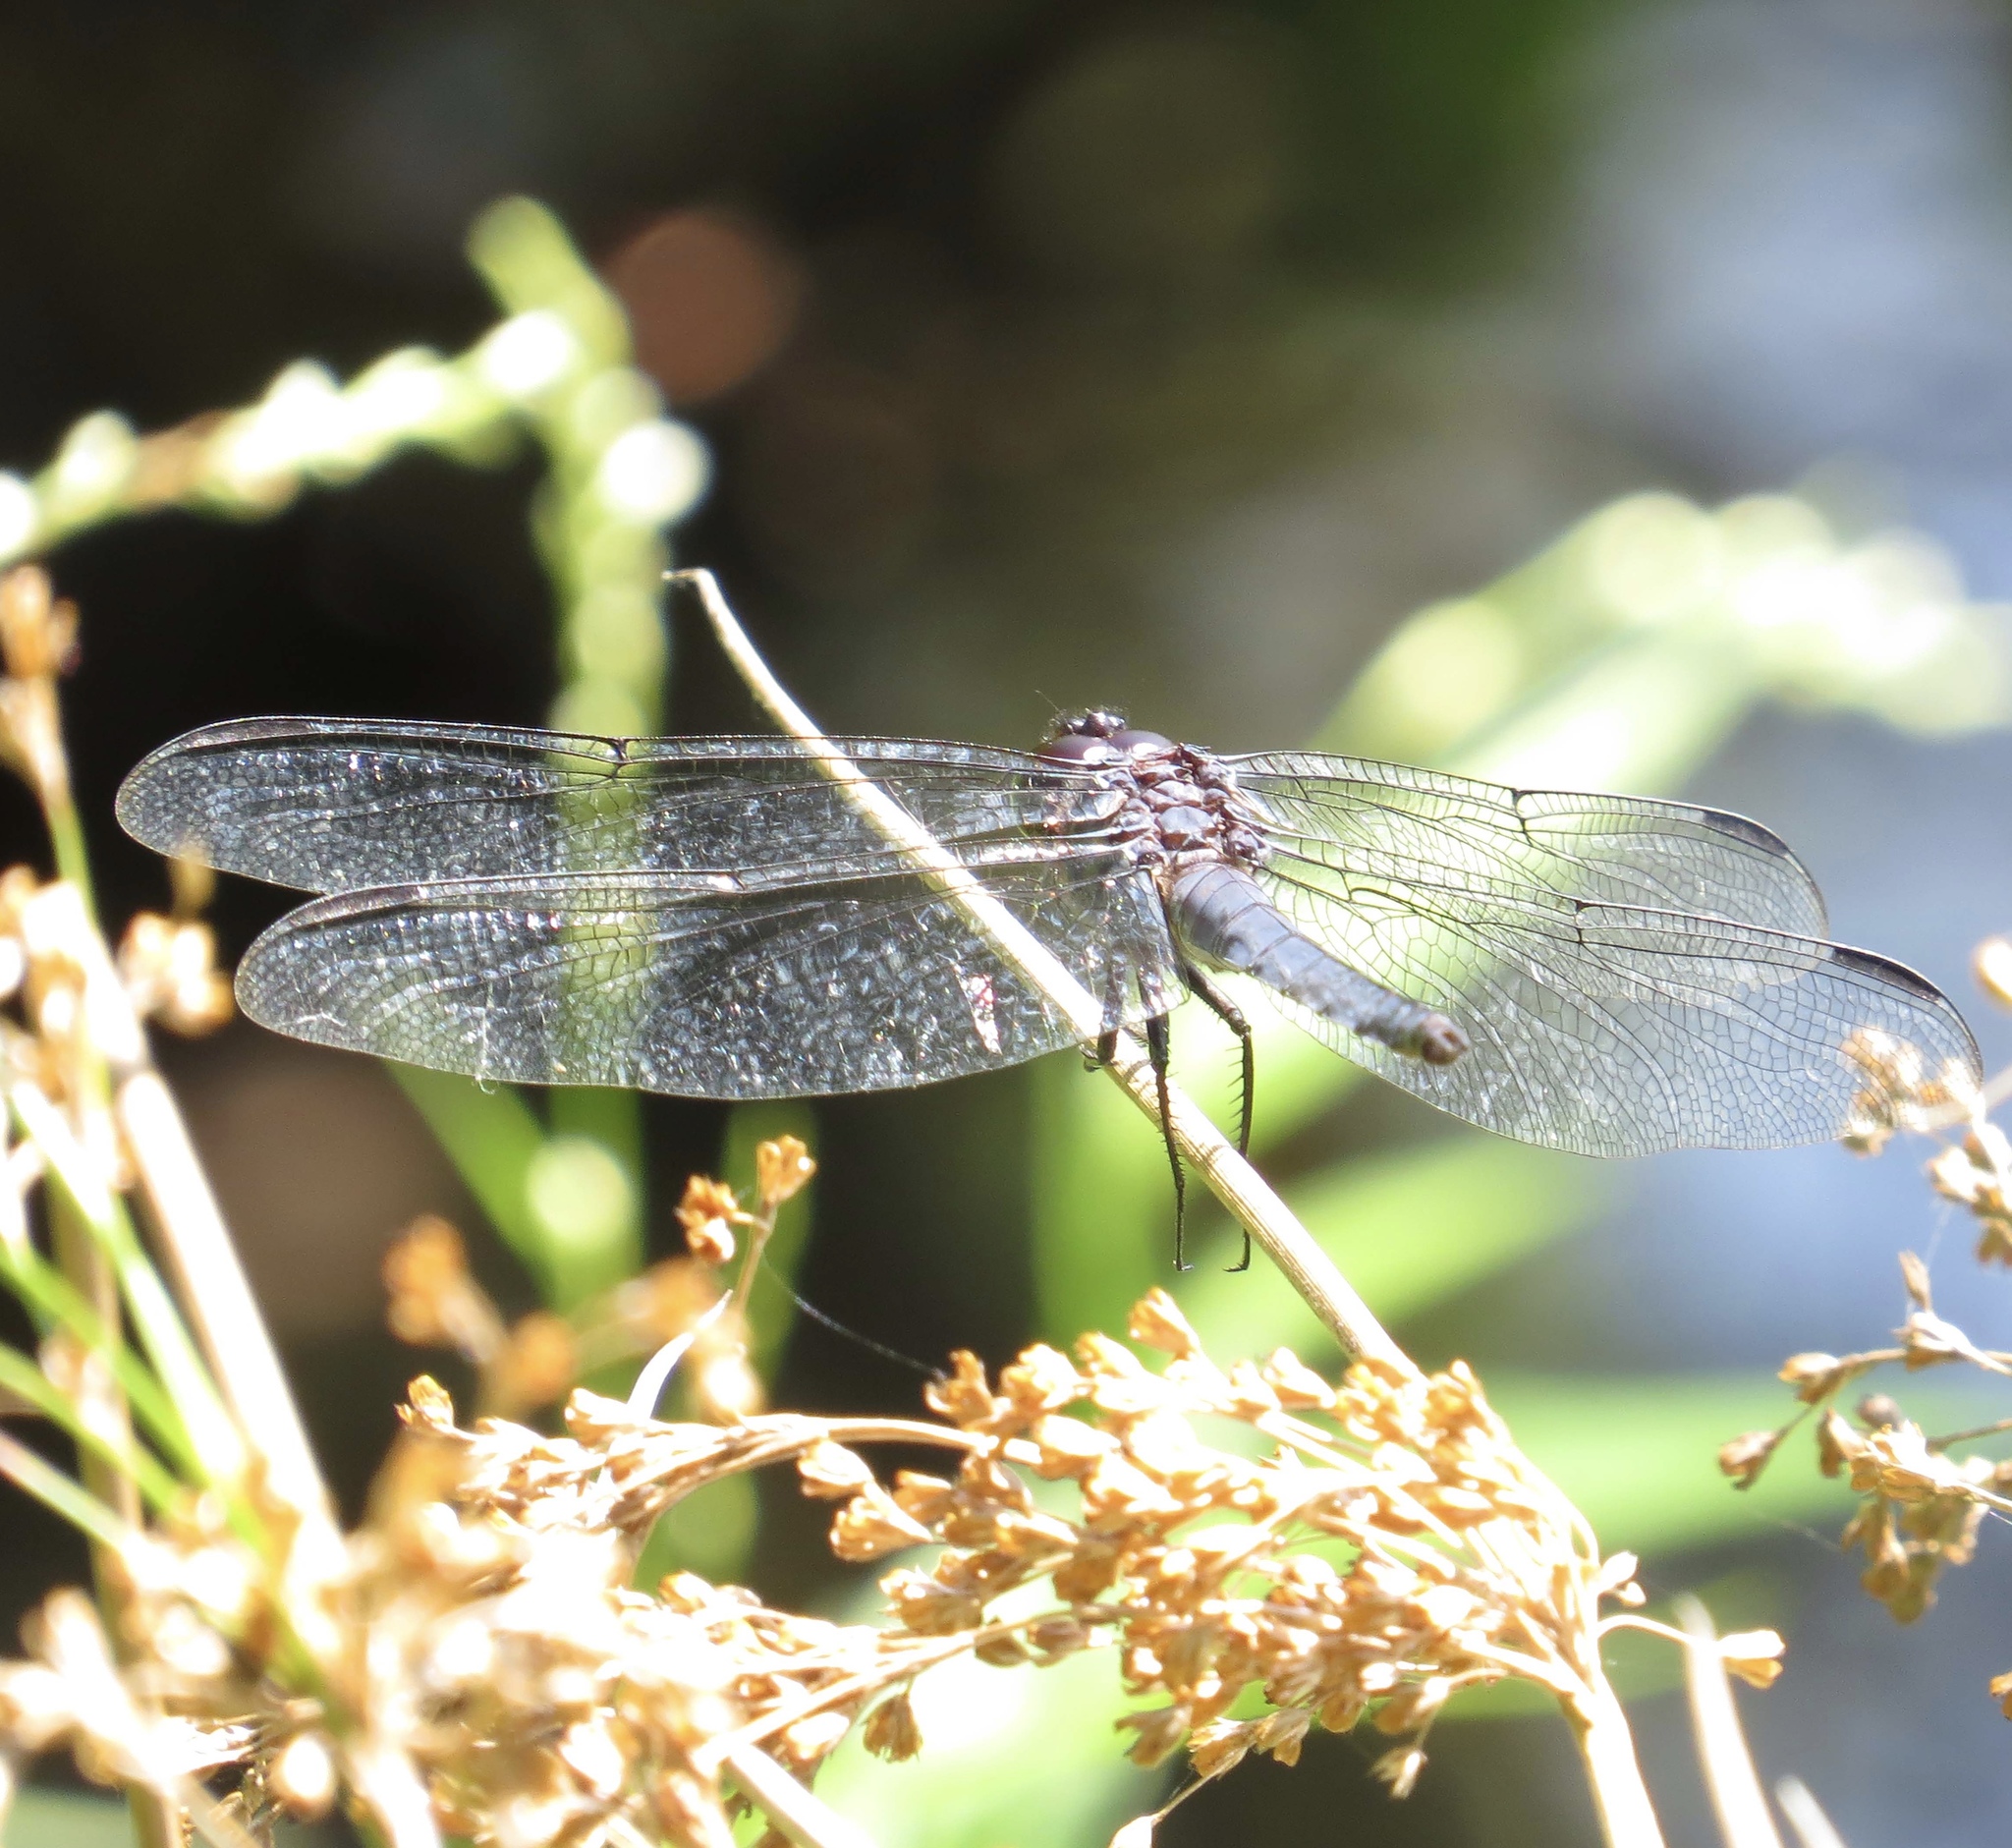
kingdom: Animalia
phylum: Arthropoda
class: Insecta
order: Odonata
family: Libellulidae
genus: Libellula
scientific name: Libellula incesta
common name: Slaty skimmer
